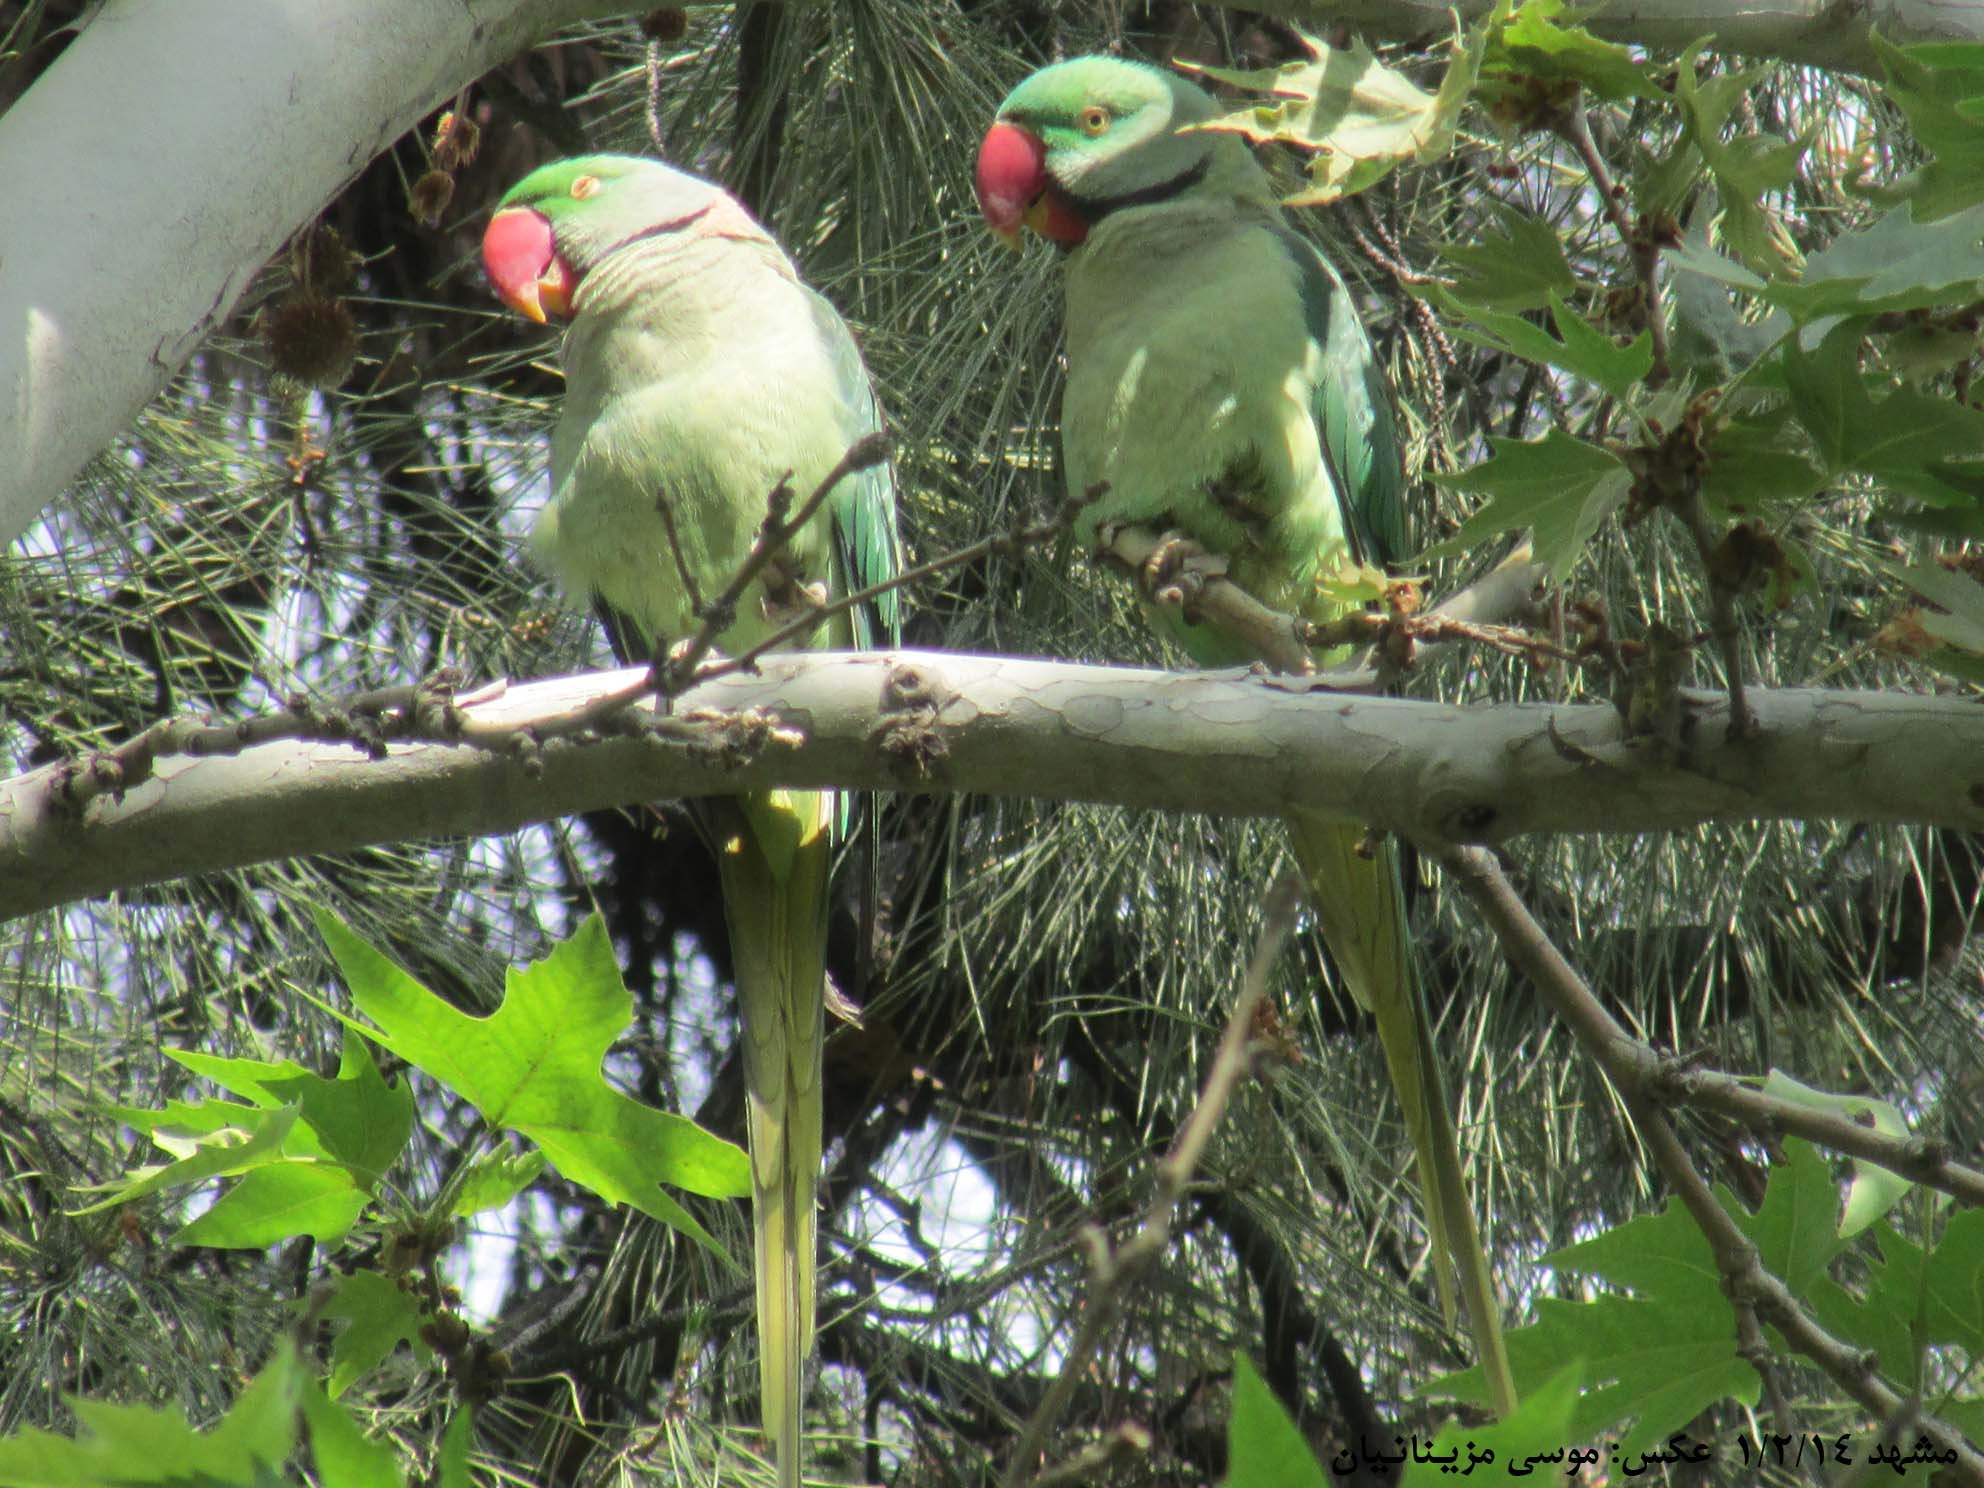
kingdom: Animalia
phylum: Chordata
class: Aves
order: Psittaciformes
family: Psittacidae
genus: Psittacula
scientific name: Psittacula eupatria
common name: Alexandrine parakeet
